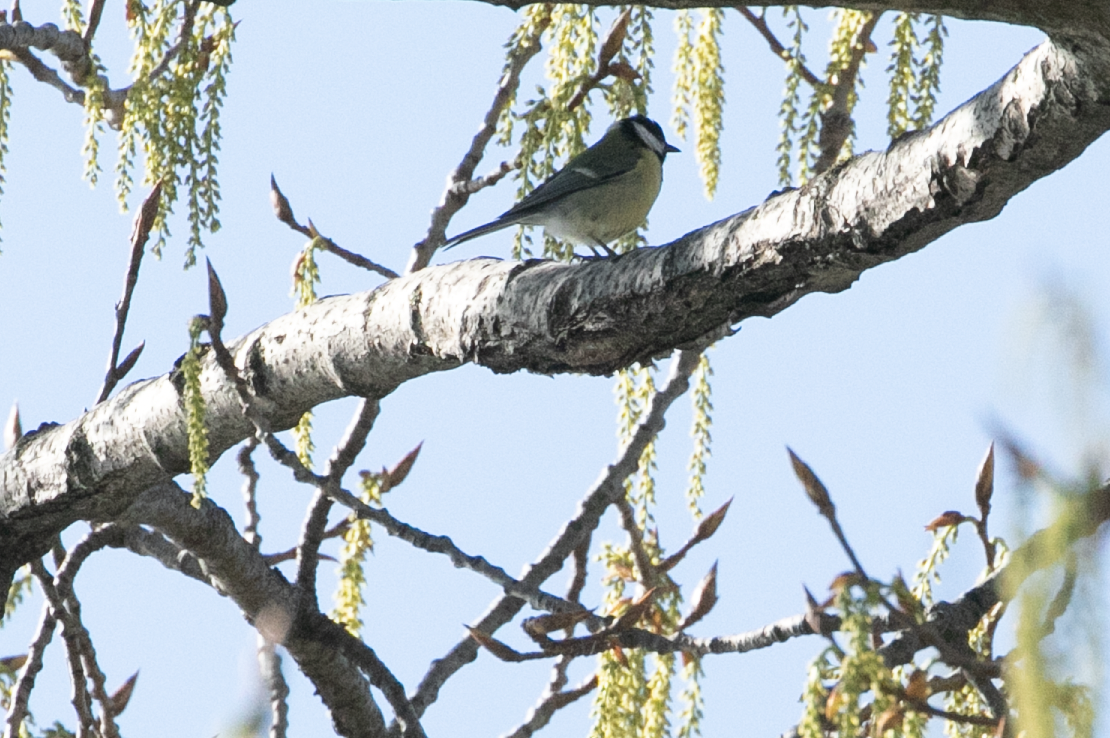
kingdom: Animalia
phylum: Chordata
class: Aves
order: Passeriformes
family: Paridae
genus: Parus
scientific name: Parus major
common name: Great tit
